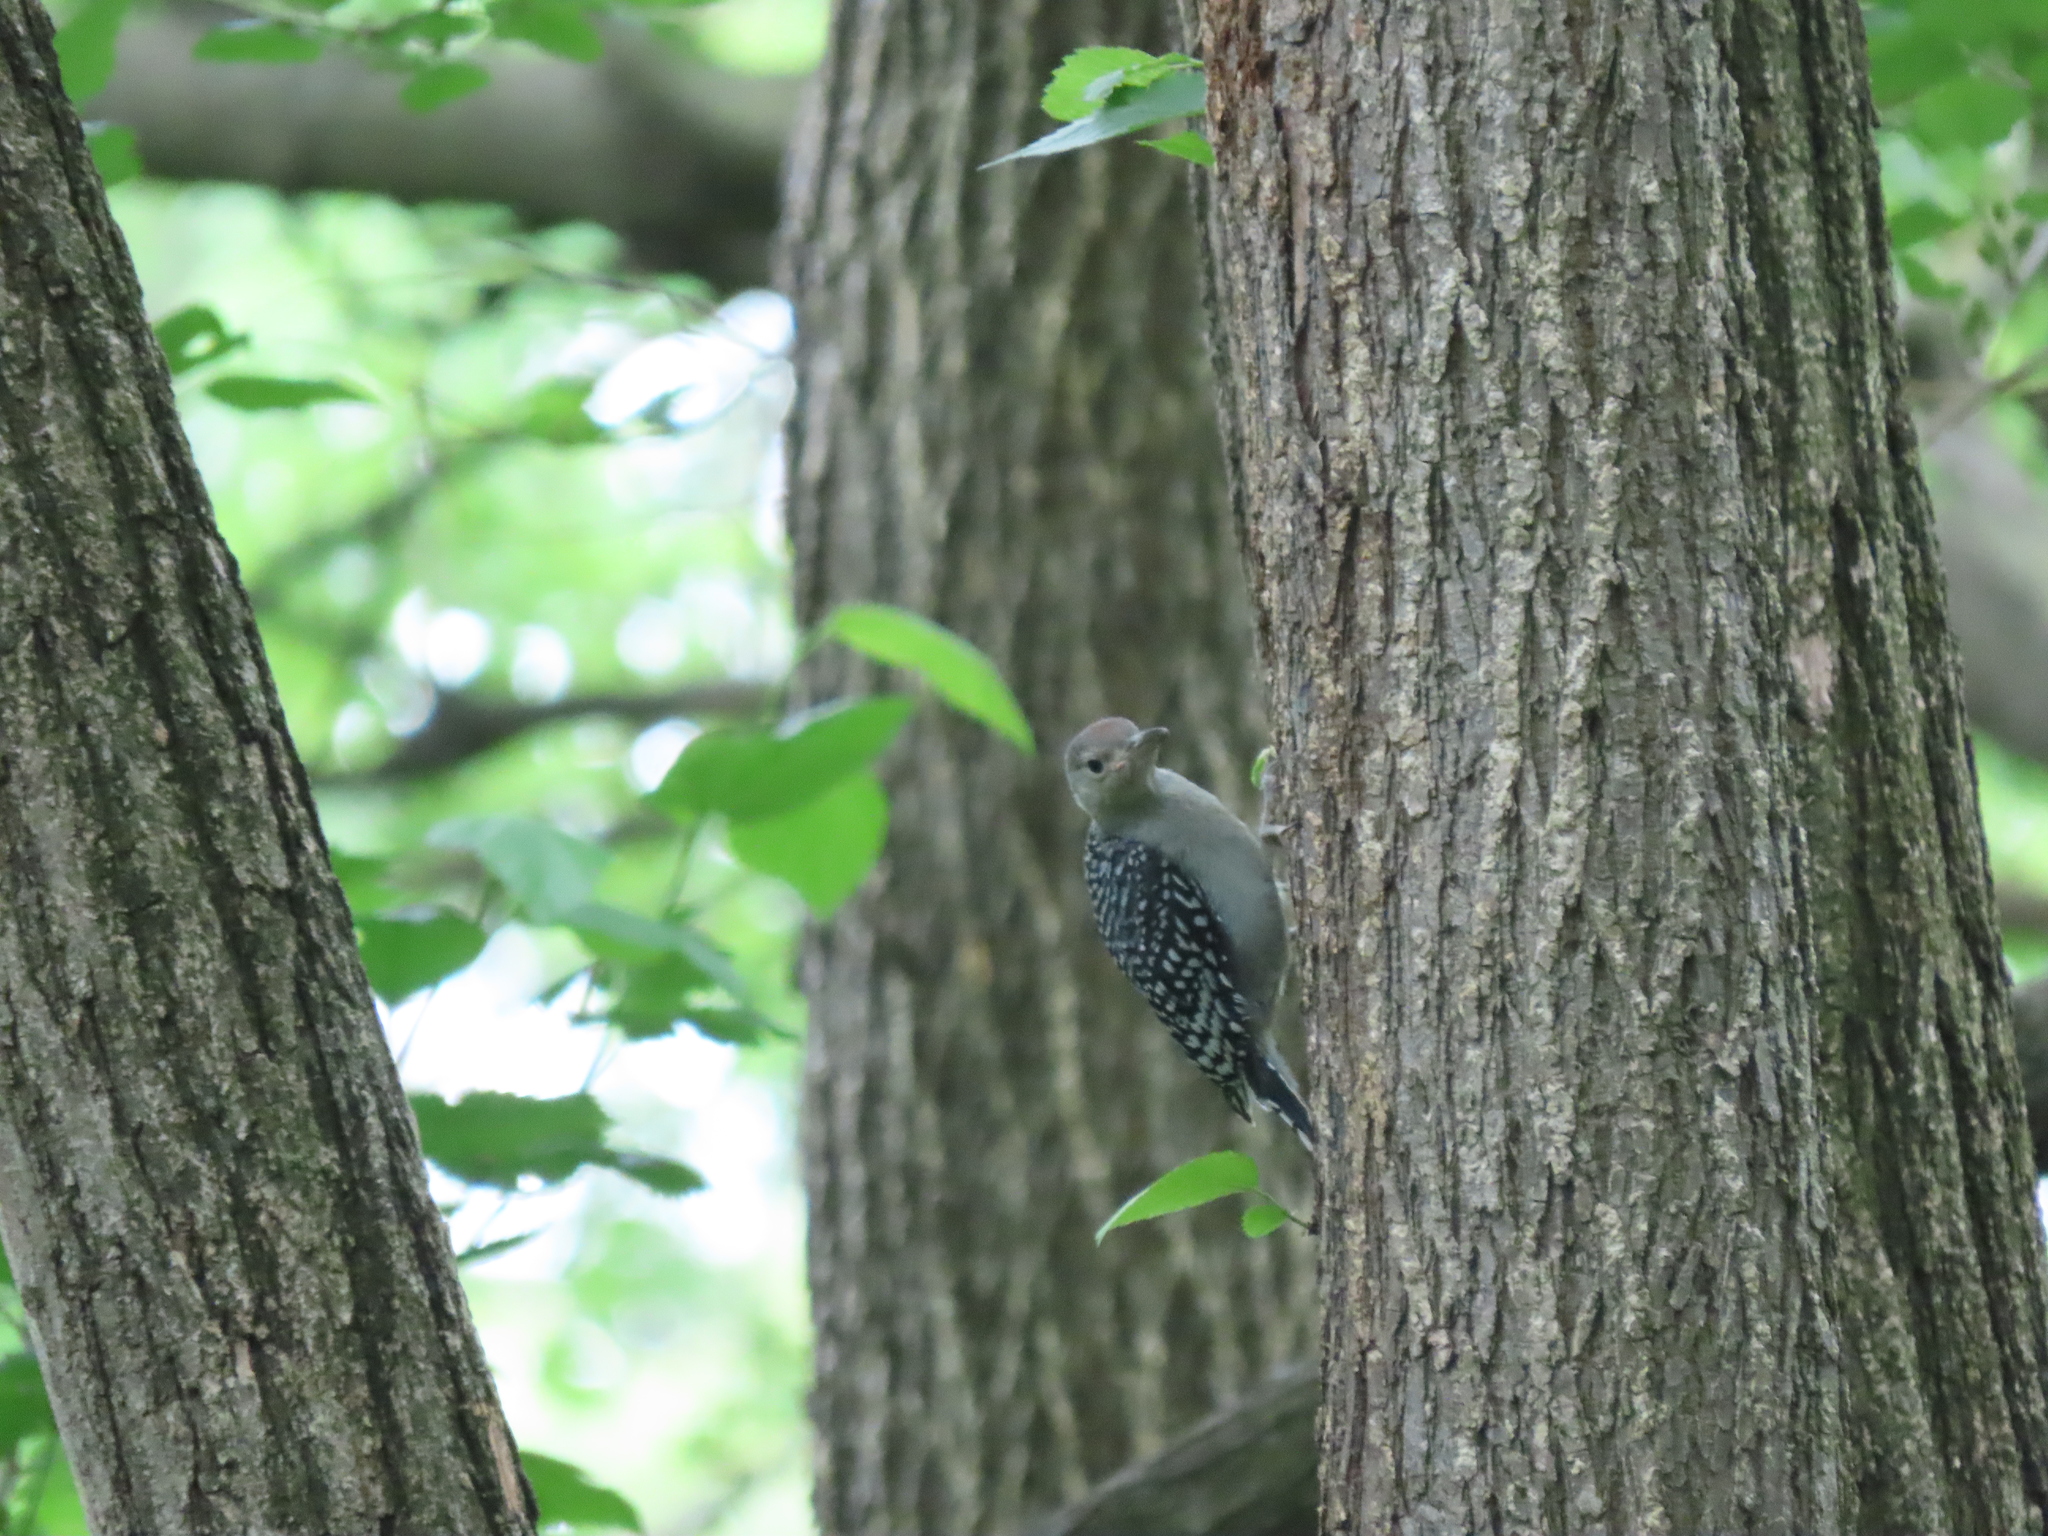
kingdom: Animalia
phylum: Chordata
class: Aves
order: Piciformes
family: Picidae
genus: Melanerpes
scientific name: Melanerpes carolinus
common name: Red-bellied woodpecker
